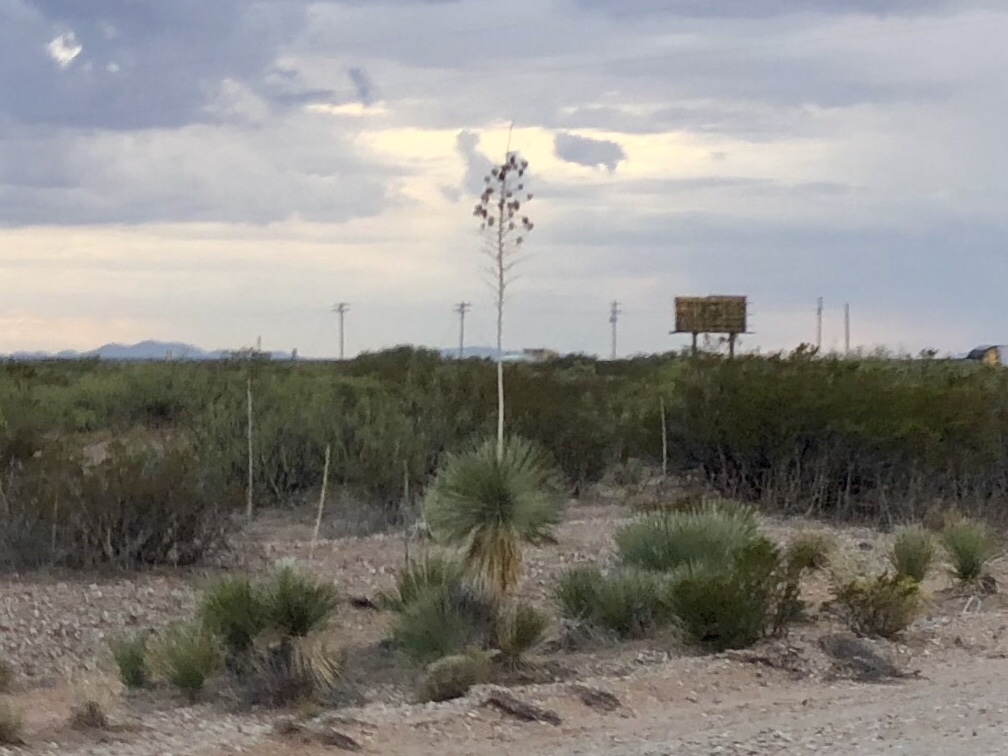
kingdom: Plantae
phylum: Tracheophyta
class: Liliopsida
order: Asparagales
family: Asparagaceae
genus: Yucca
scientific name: Yucca elata
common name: Palmella
